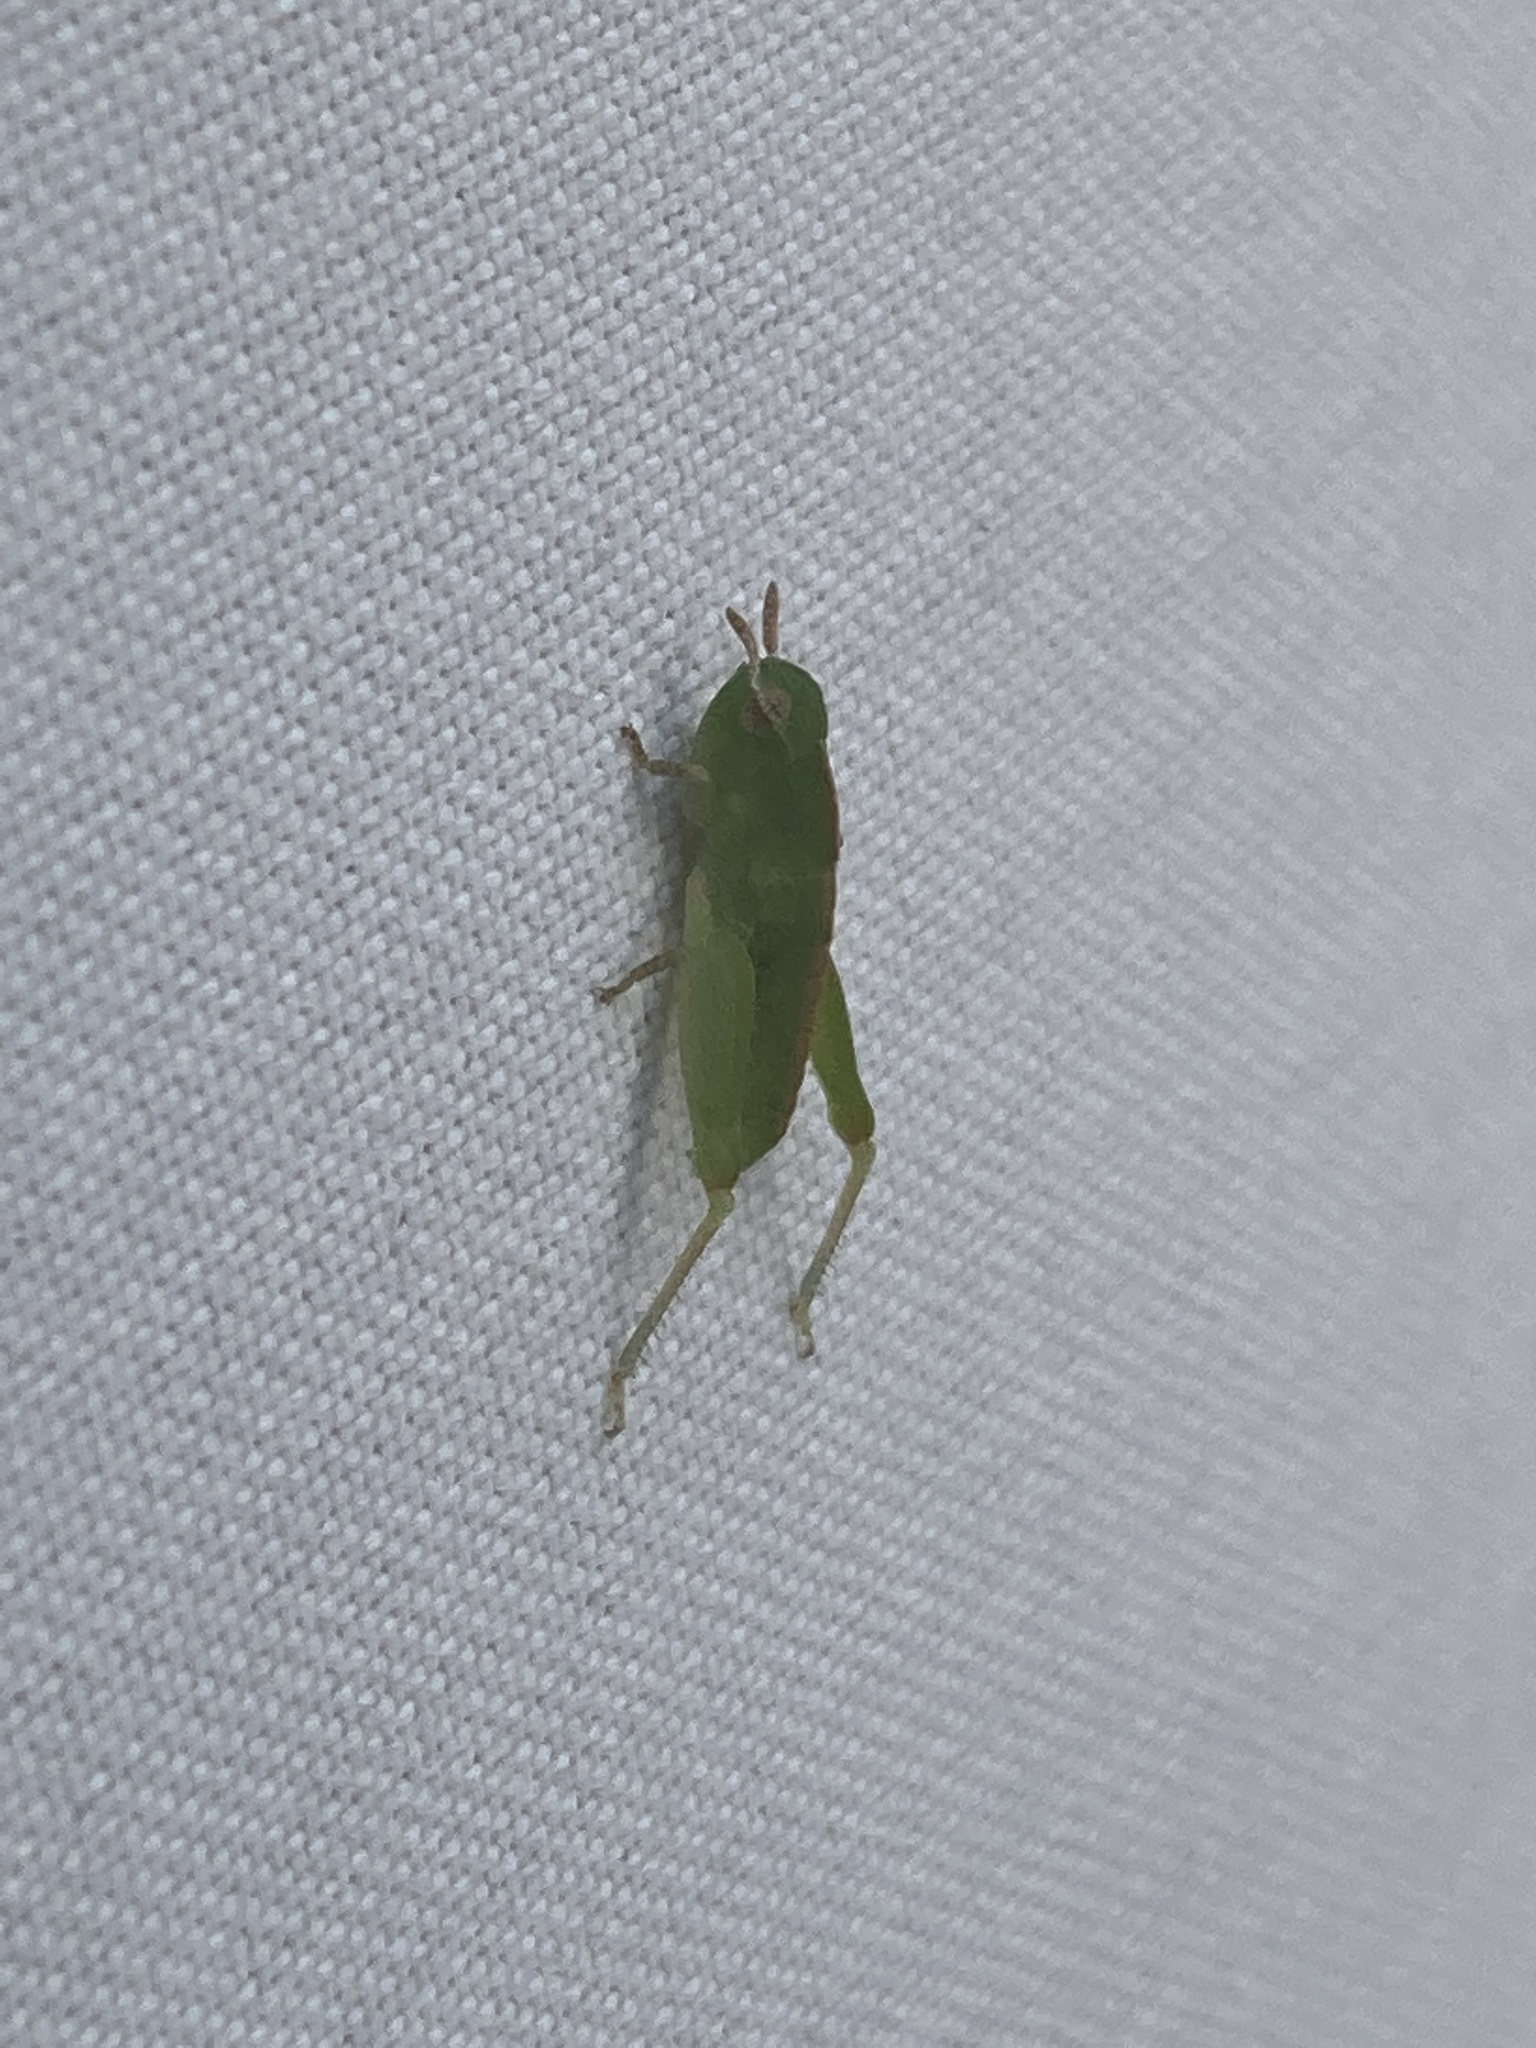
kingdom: Animalia
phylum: Arthropoda
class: Insecta
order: Orthoptera
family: Acrididae
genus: Chortophaga
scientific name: Chortophaga viridifasciata
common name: Green-striped grasshopper
